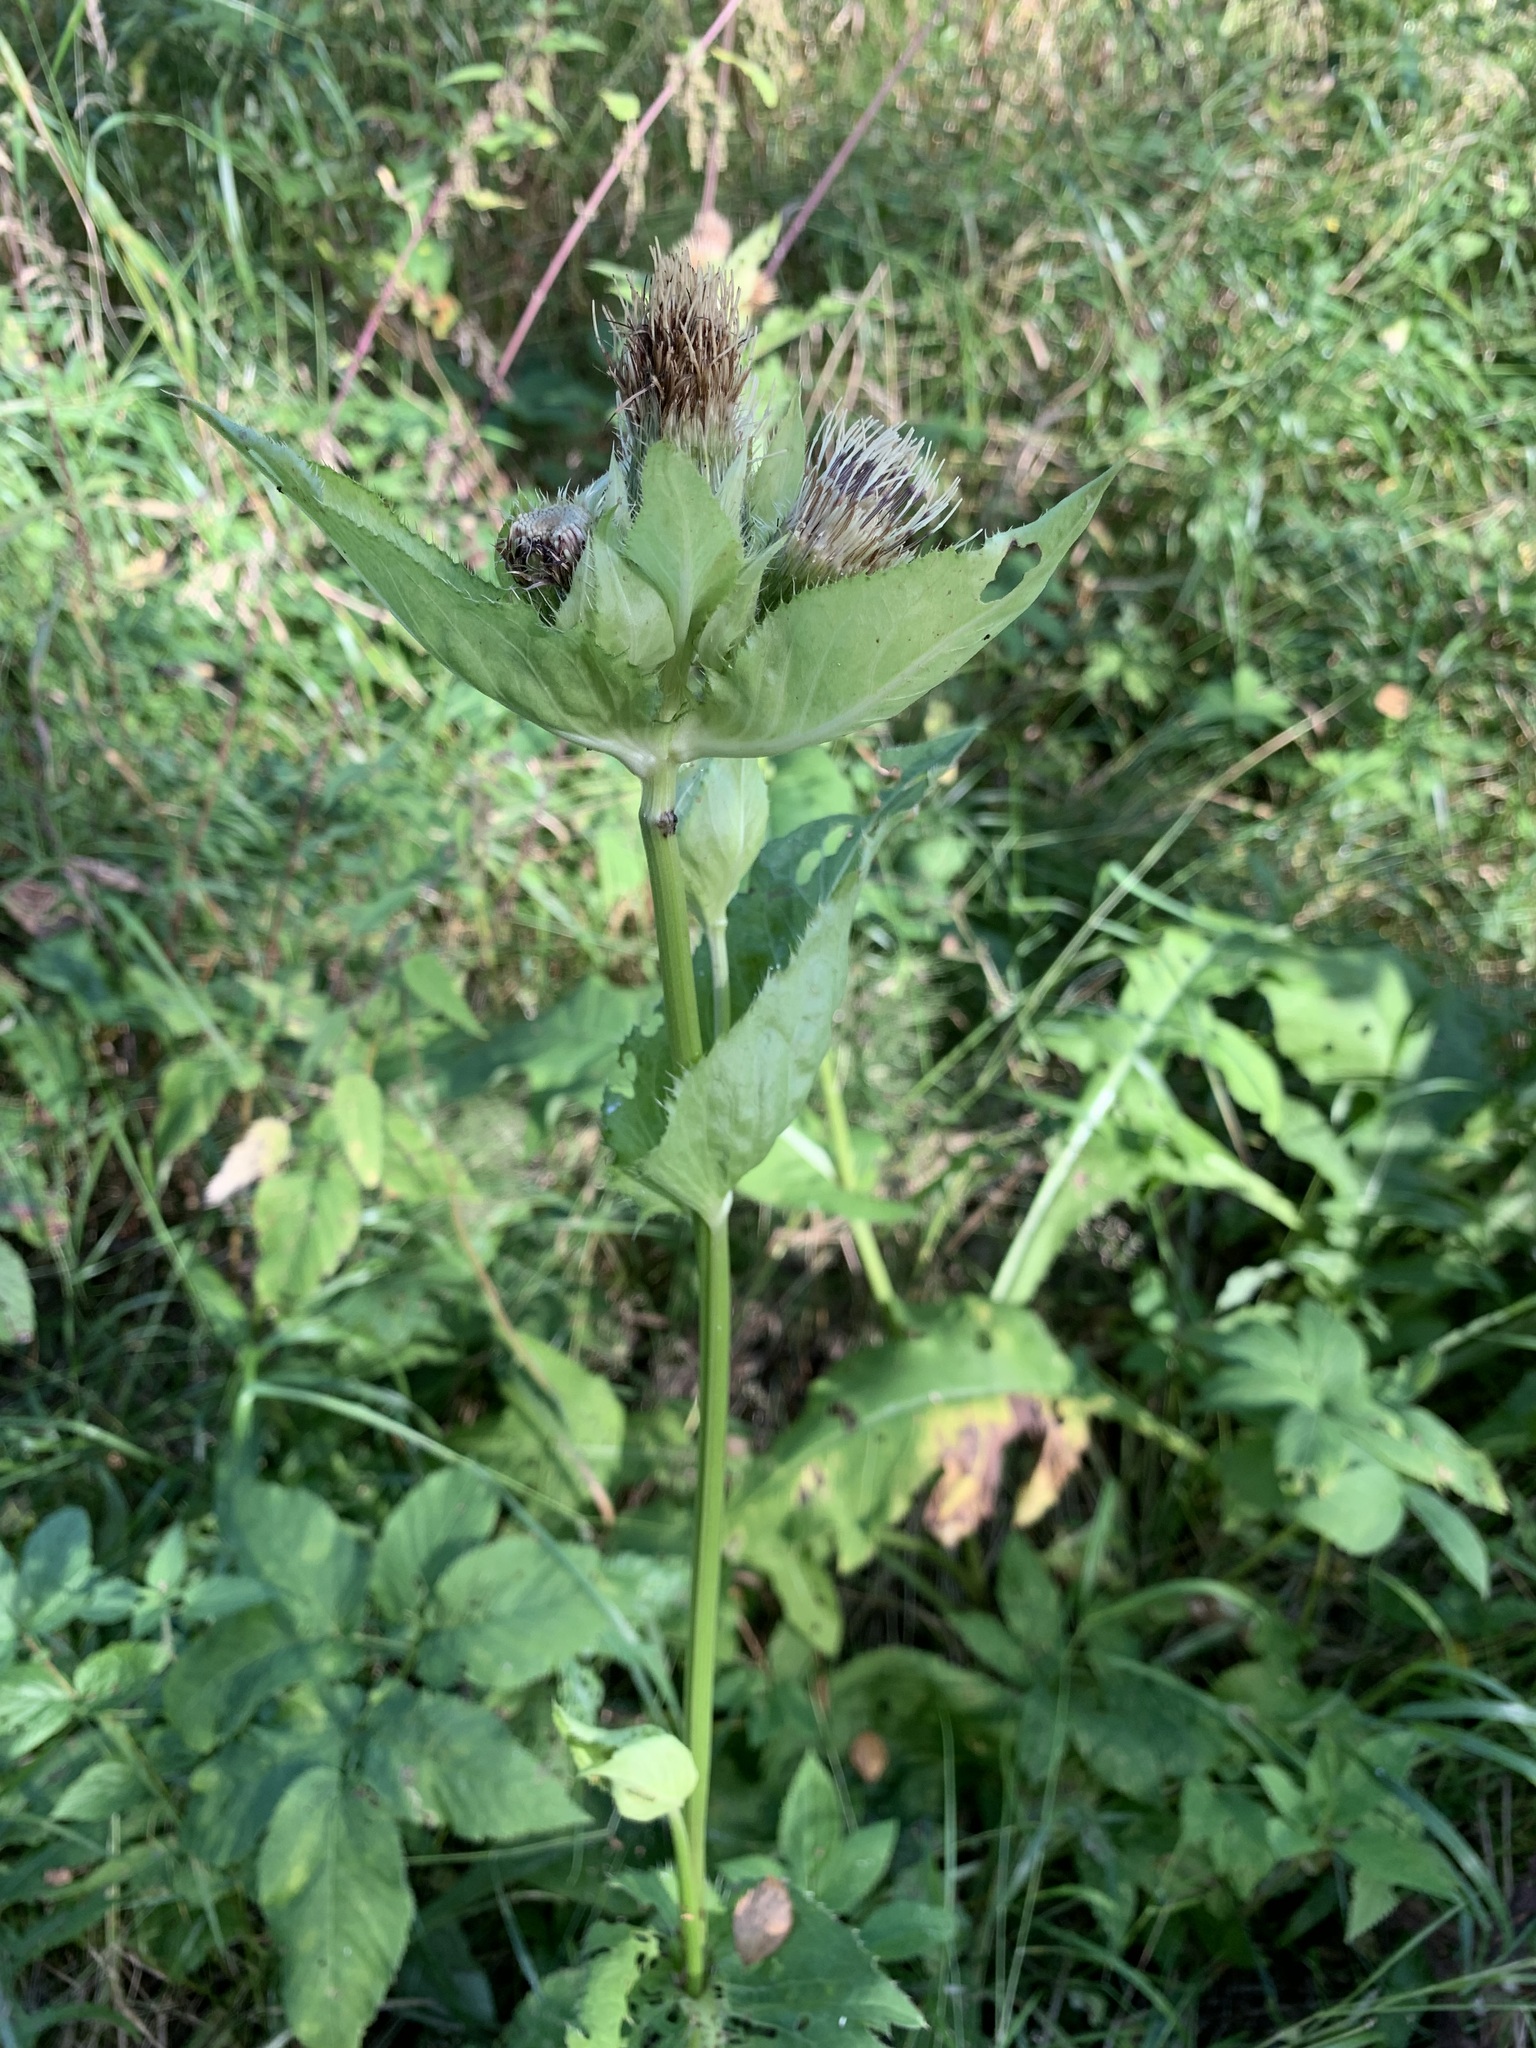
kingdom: Plantae
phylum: Tracheophyta
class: Magnoliopsida
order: Asterales
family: Asteraceae
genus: Cirsium
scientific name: Cirsium oleraceum
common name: Cabbage thistle
